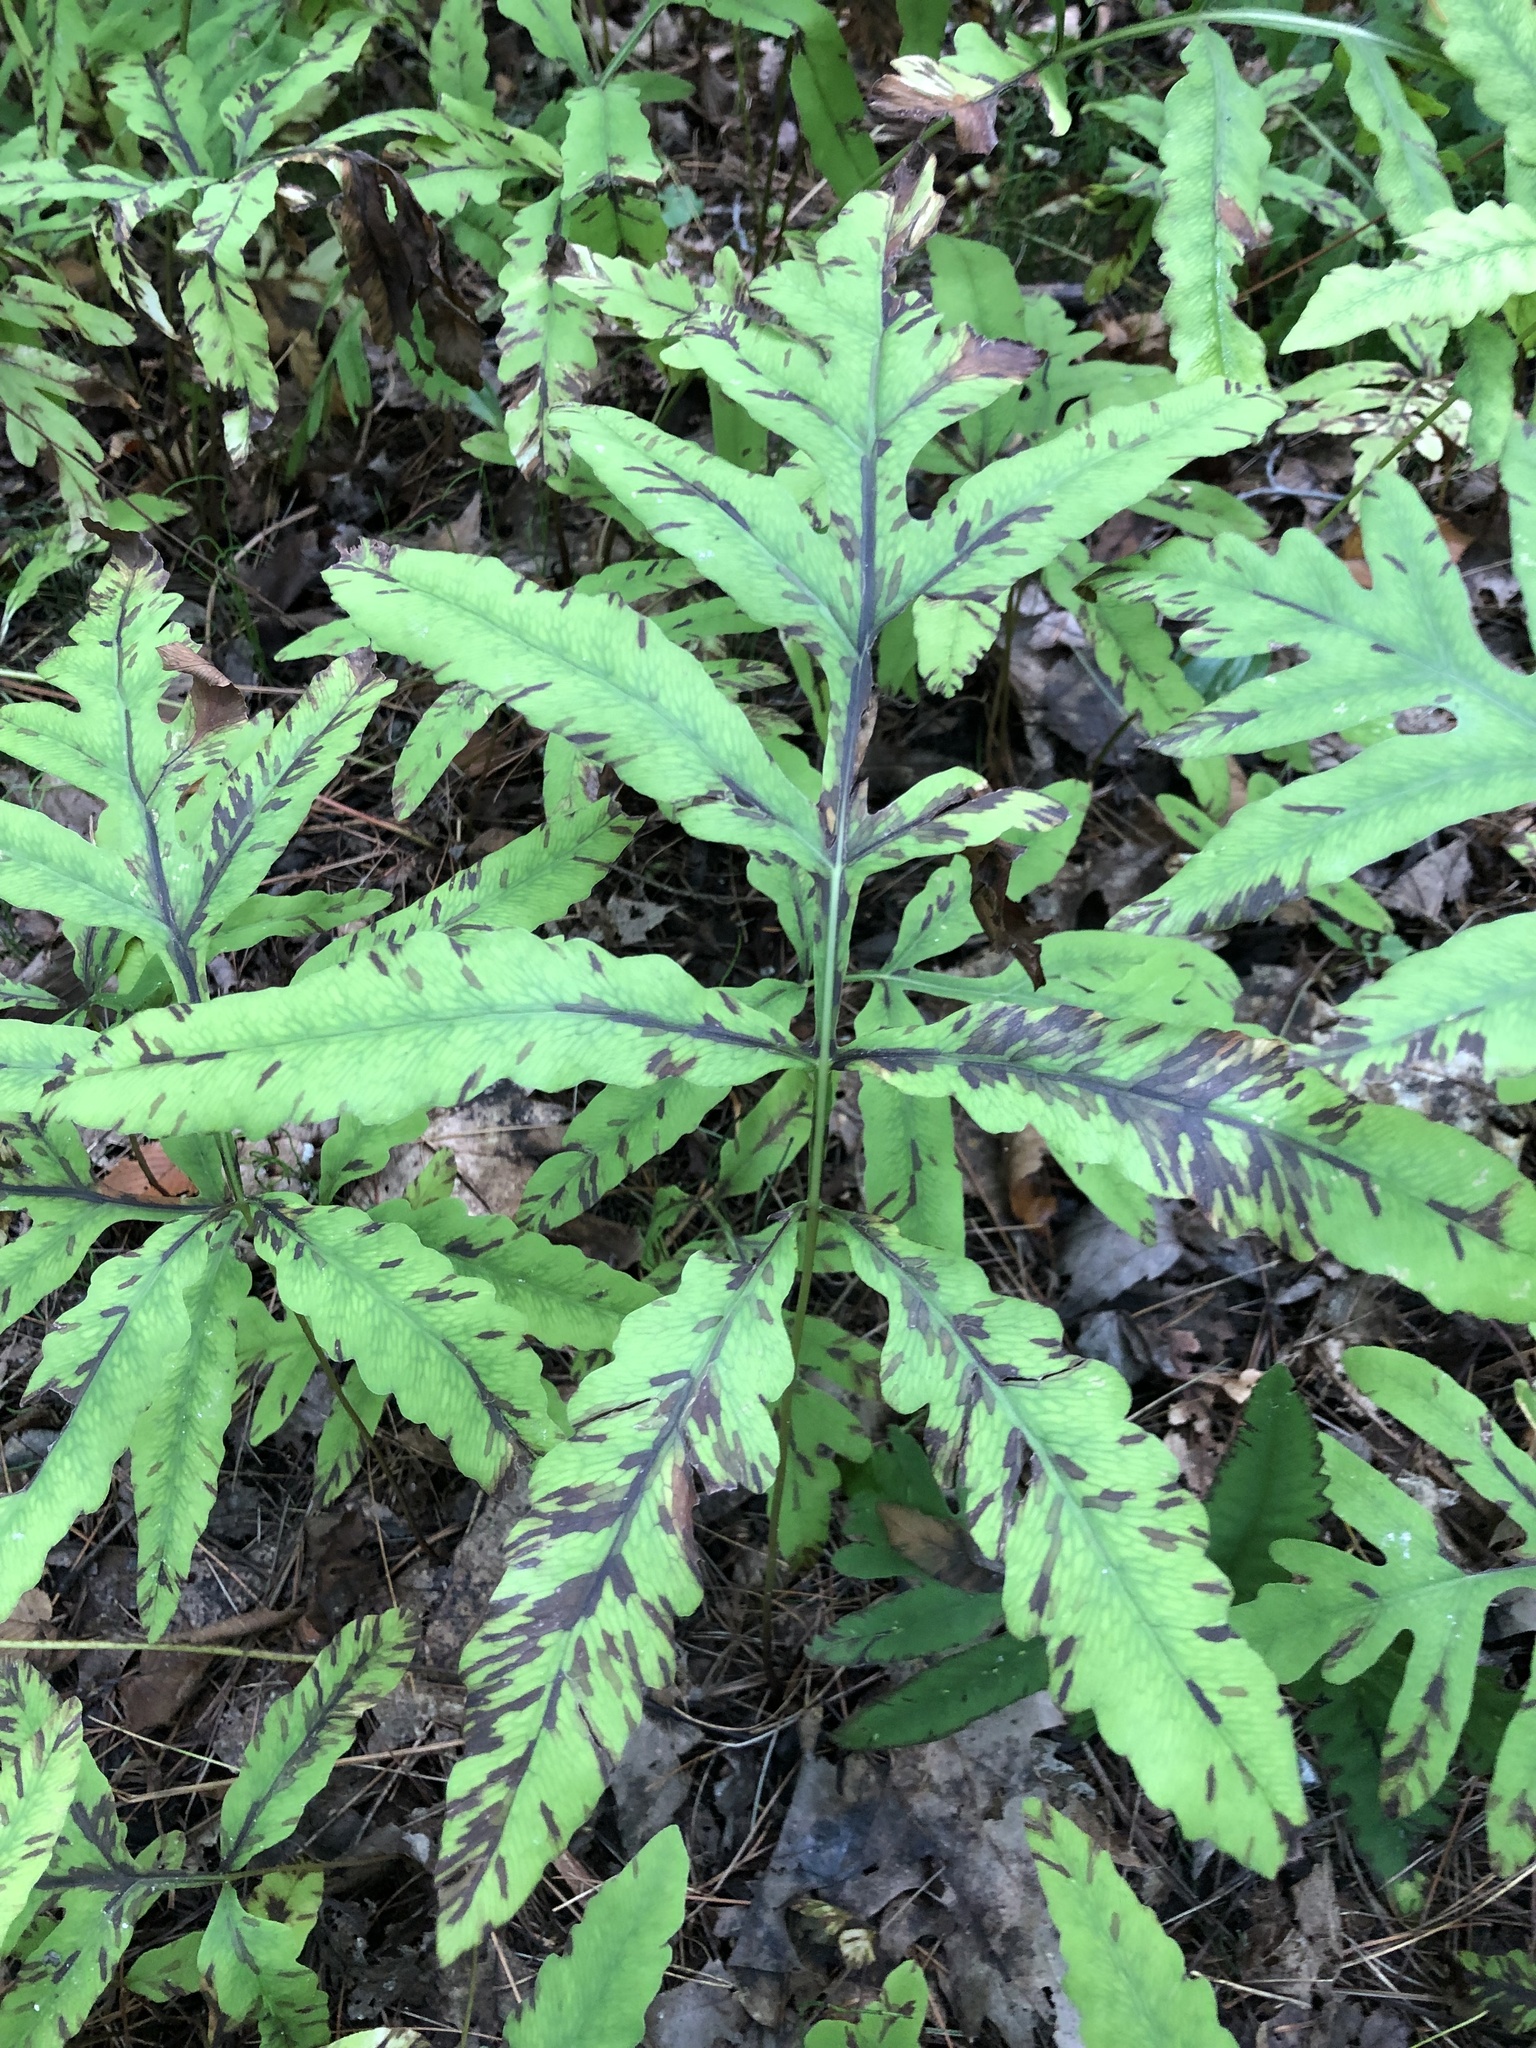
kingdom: Plantae
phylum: Tracheophyta
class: Polypodiopsida
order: Polypodiales
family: Onocleaceae
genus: Onoclea
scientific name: Onoclea sensibilis
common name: Sensitive fern
